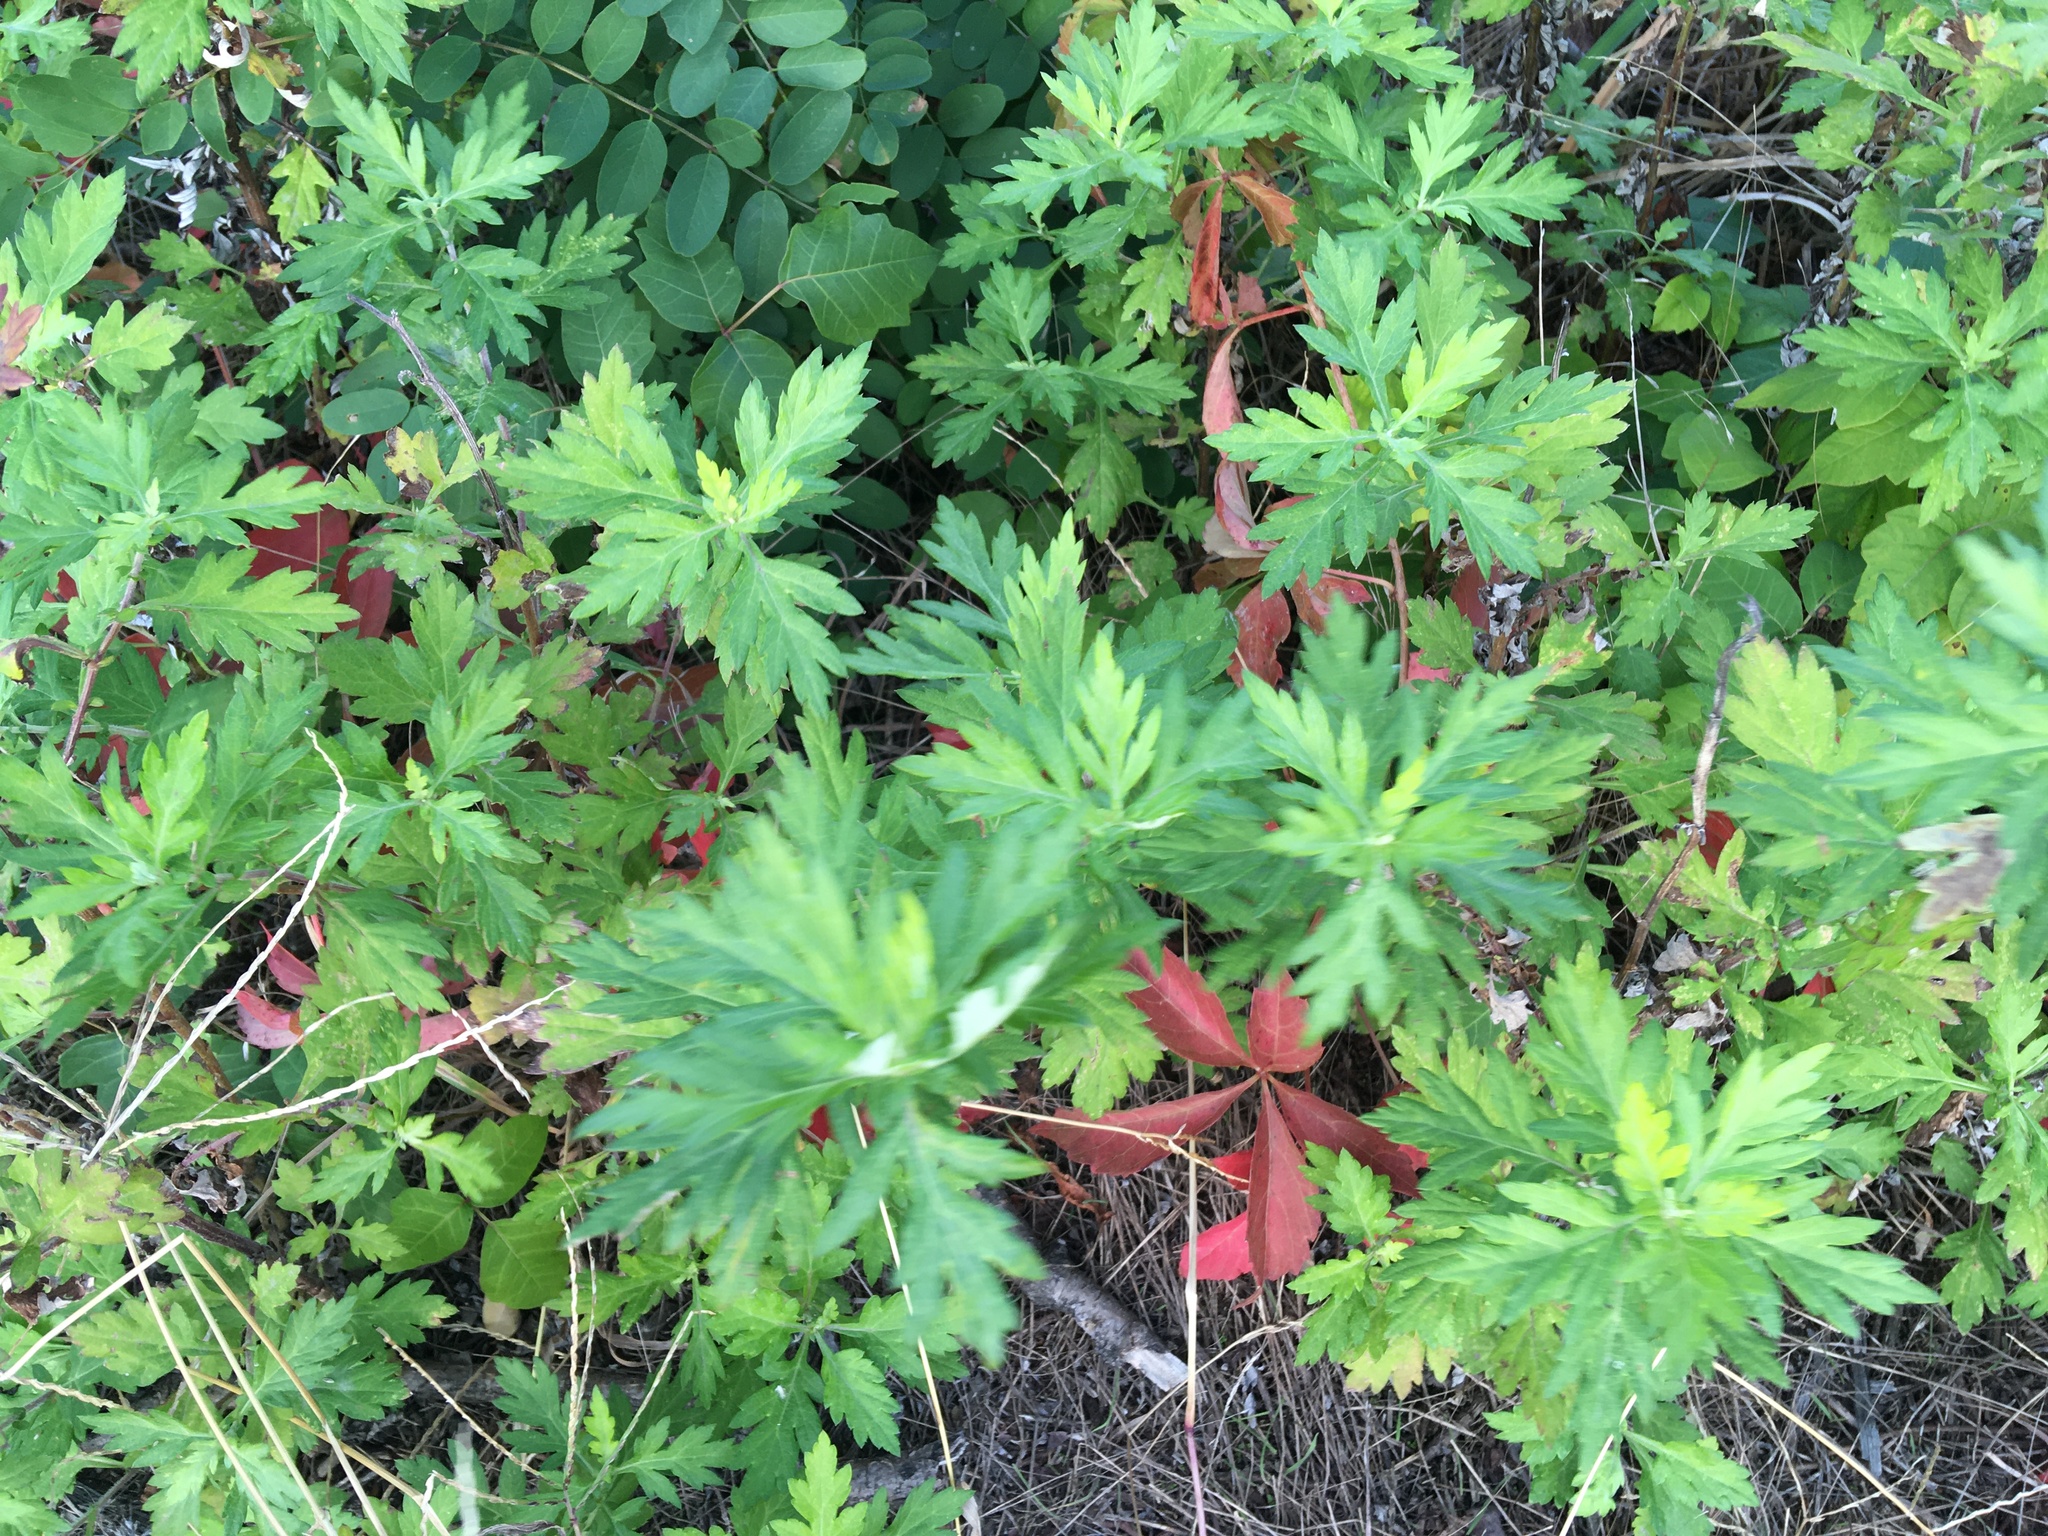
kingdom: Plantae
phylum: Tracheophyta
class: Magnoliopsida
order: Asterales
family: Asteraceae
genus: Artemisia
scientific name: Artemisia vulgaris
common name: Mugwort
